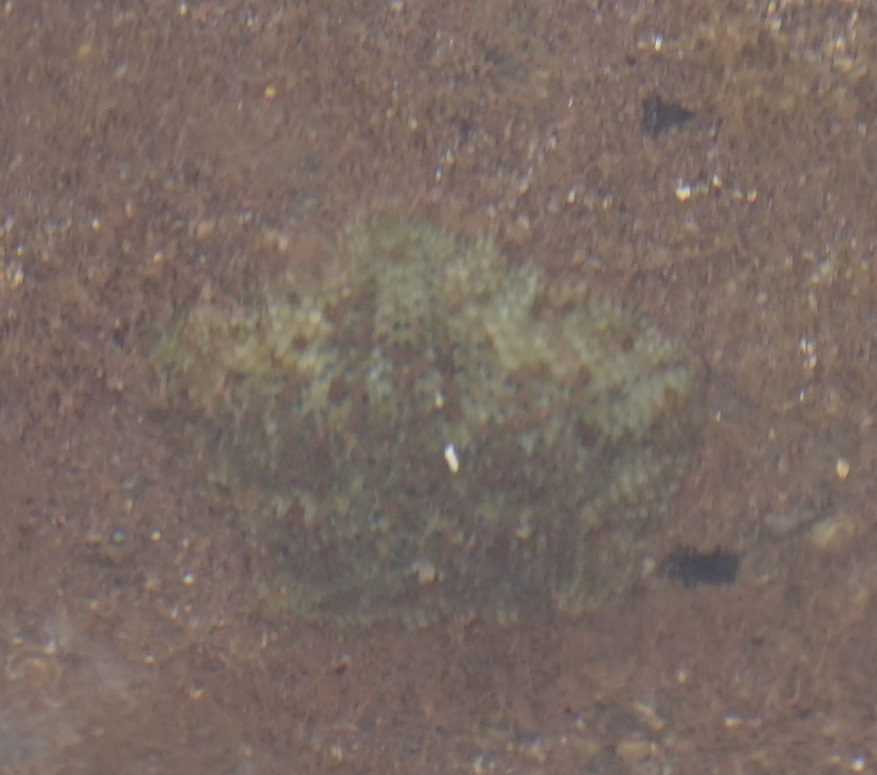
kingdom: Animalia
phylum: Echinodermata
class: Asteroidea
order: Valvatida
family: Asterinidae
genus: Parvulastra
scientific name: Parvulastra exigua
